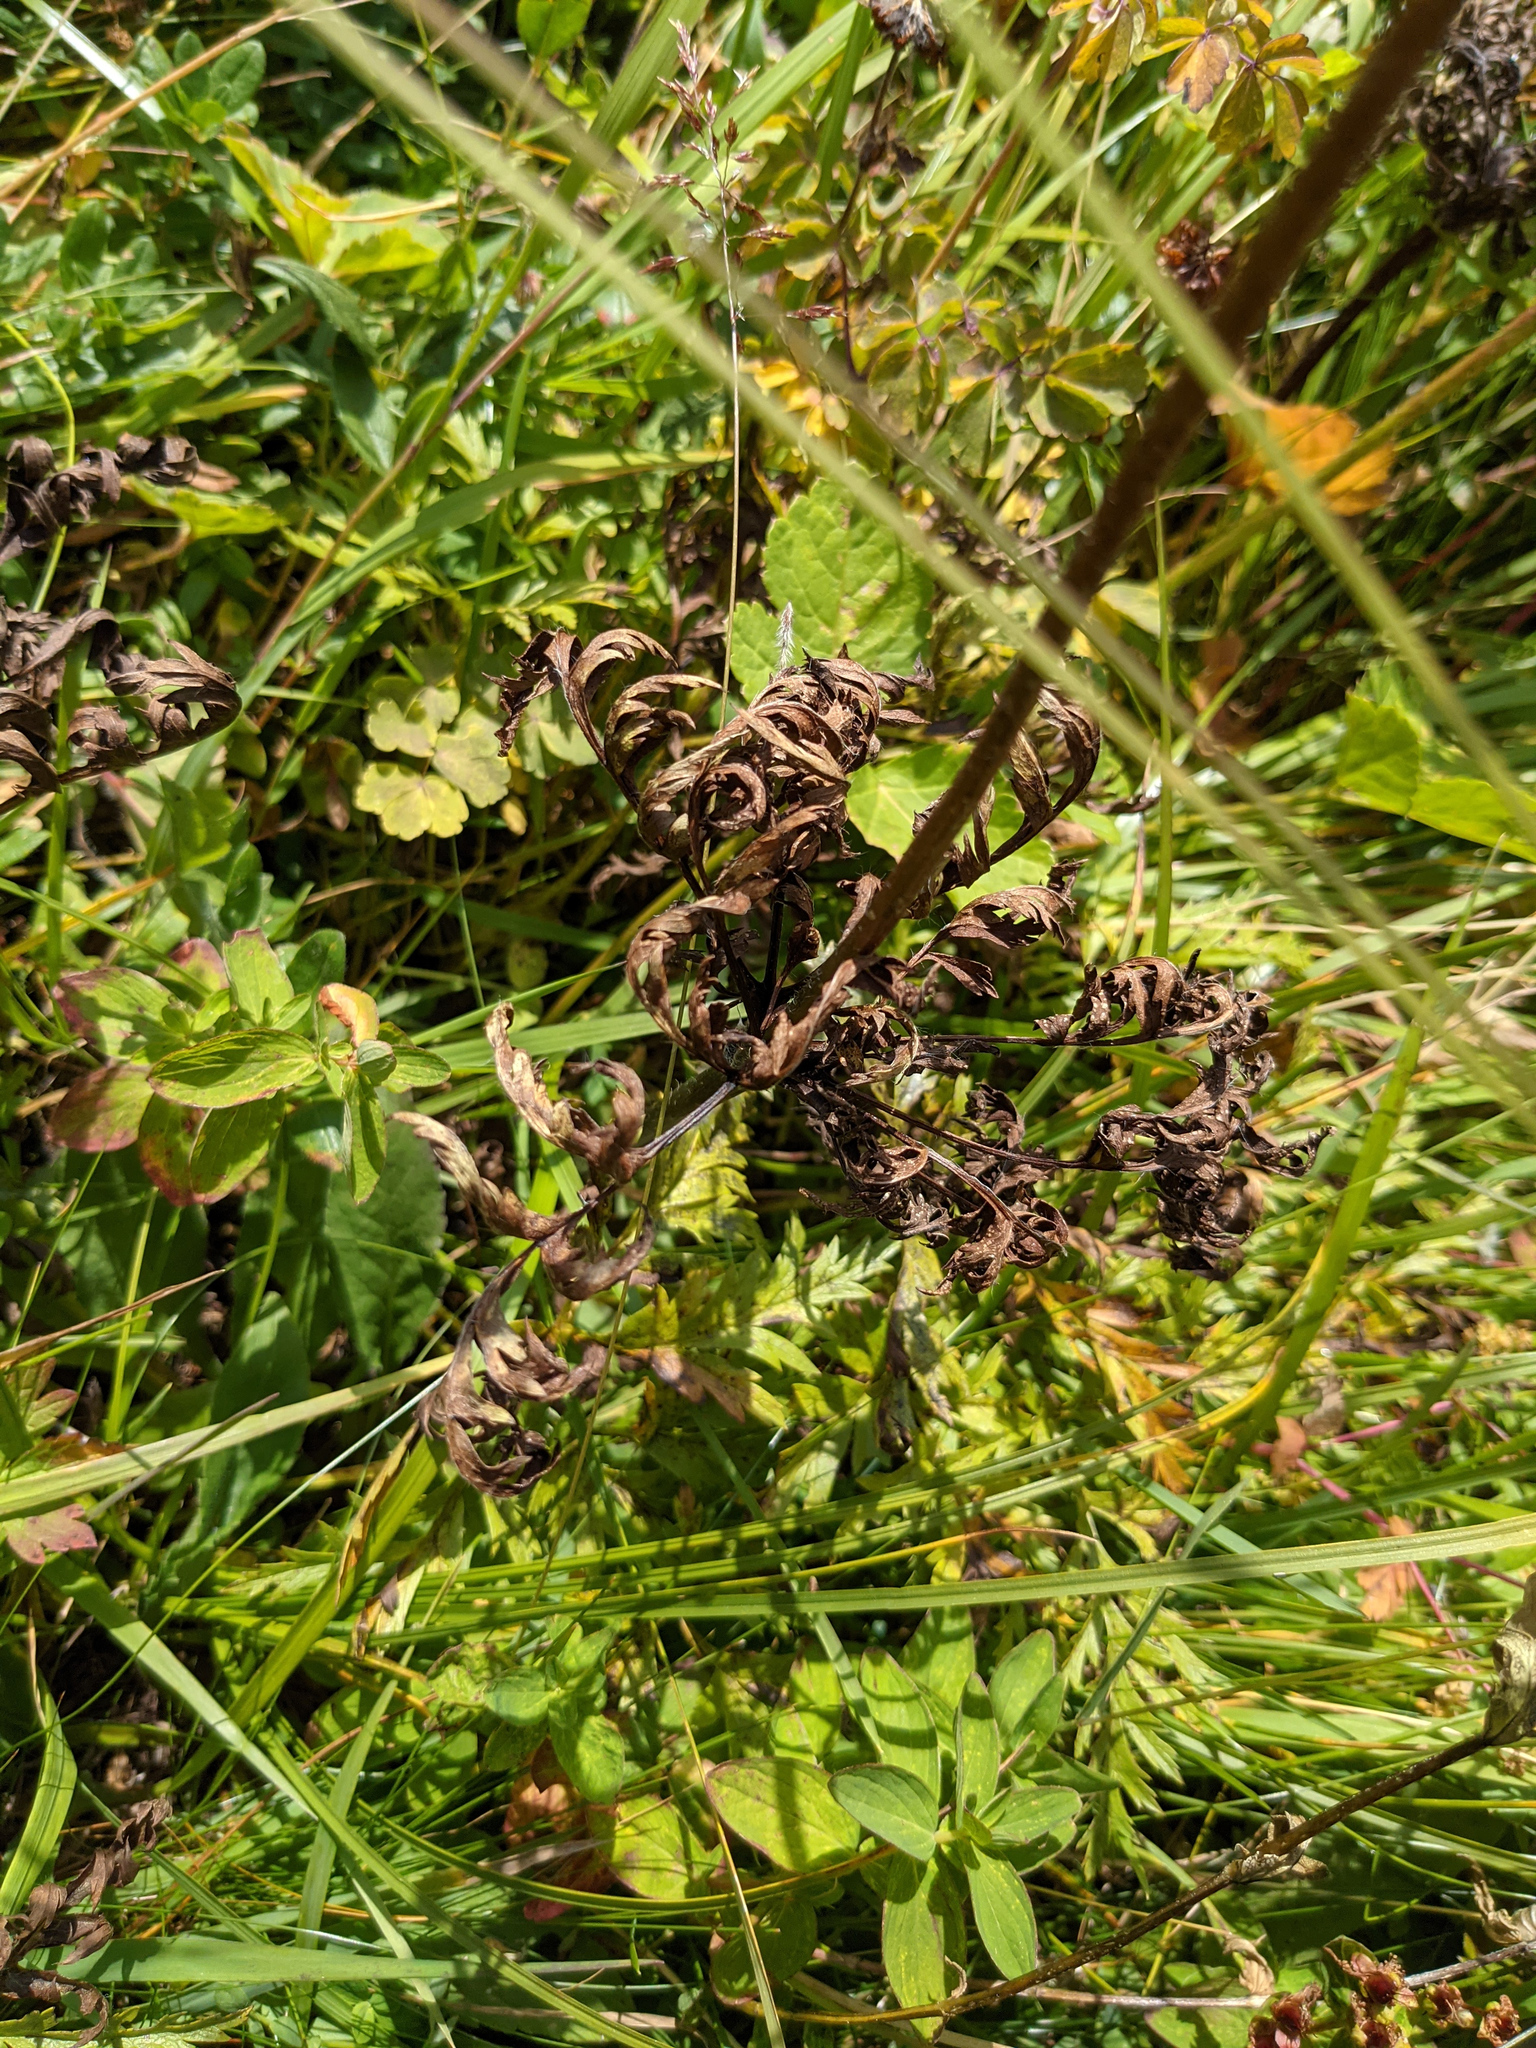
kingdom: Plantae
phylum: Tracheophyta
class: Magnoliopsida
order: Ranunculales
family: Ranunculaceae
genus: Pulsatilla
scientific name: Pulsatilla alpina
